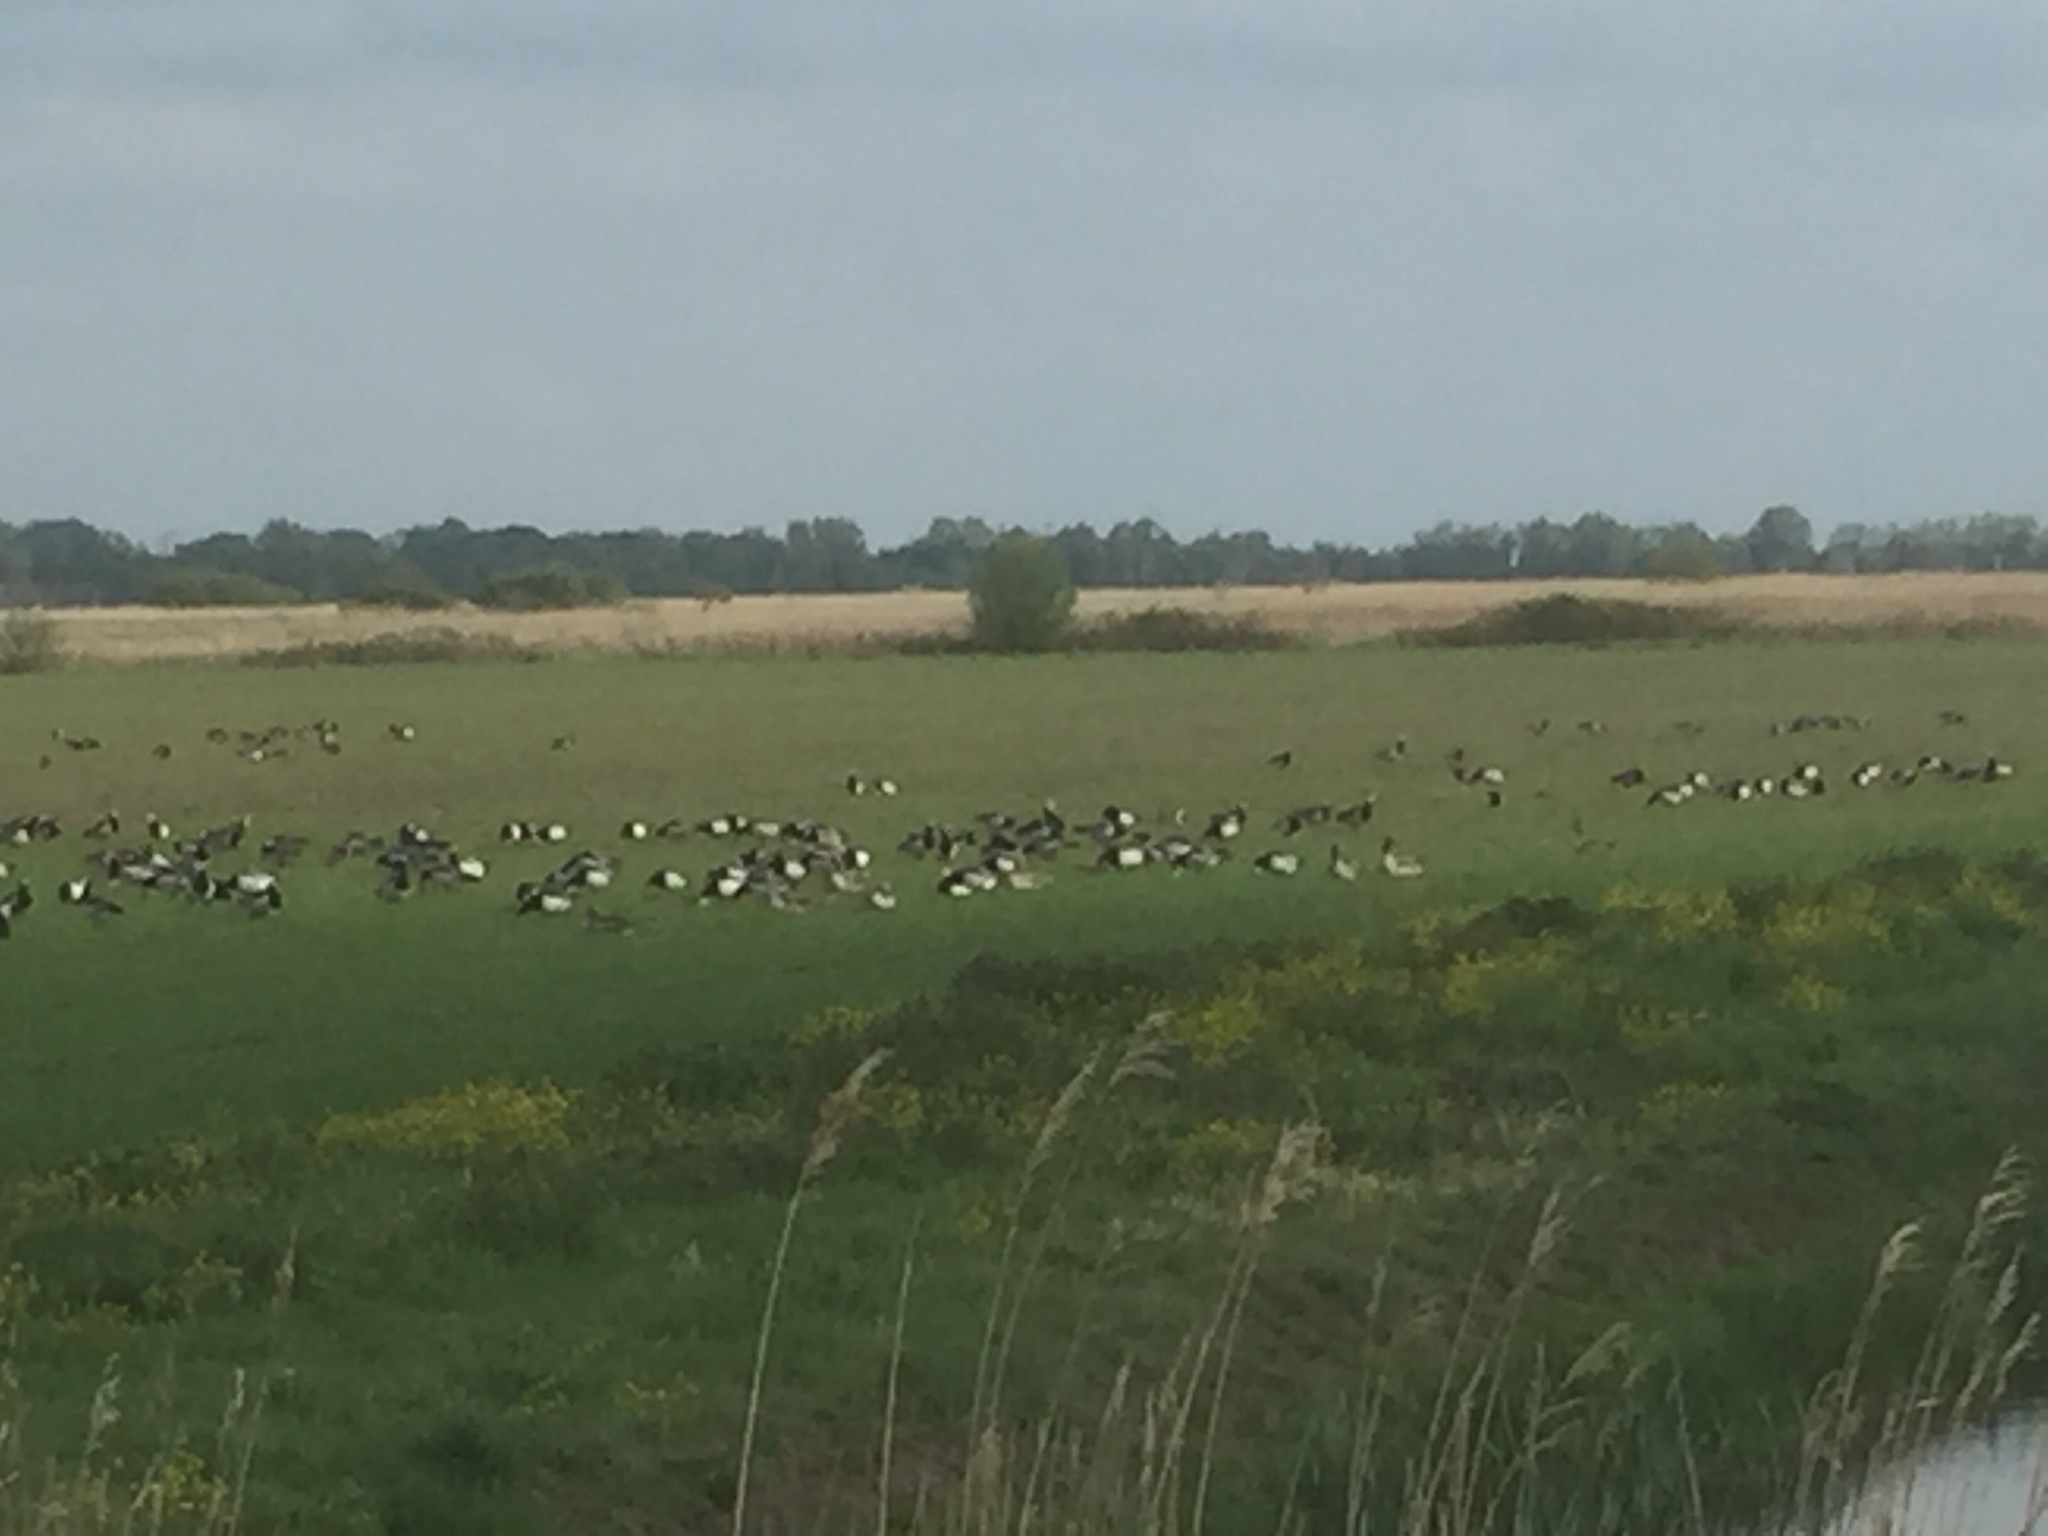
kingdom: Animalia
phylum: Chordata
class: Aves
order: Anseriformes
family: Anatidae
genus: Branta
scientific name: Branta leucopsis
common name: Barnacle goose
